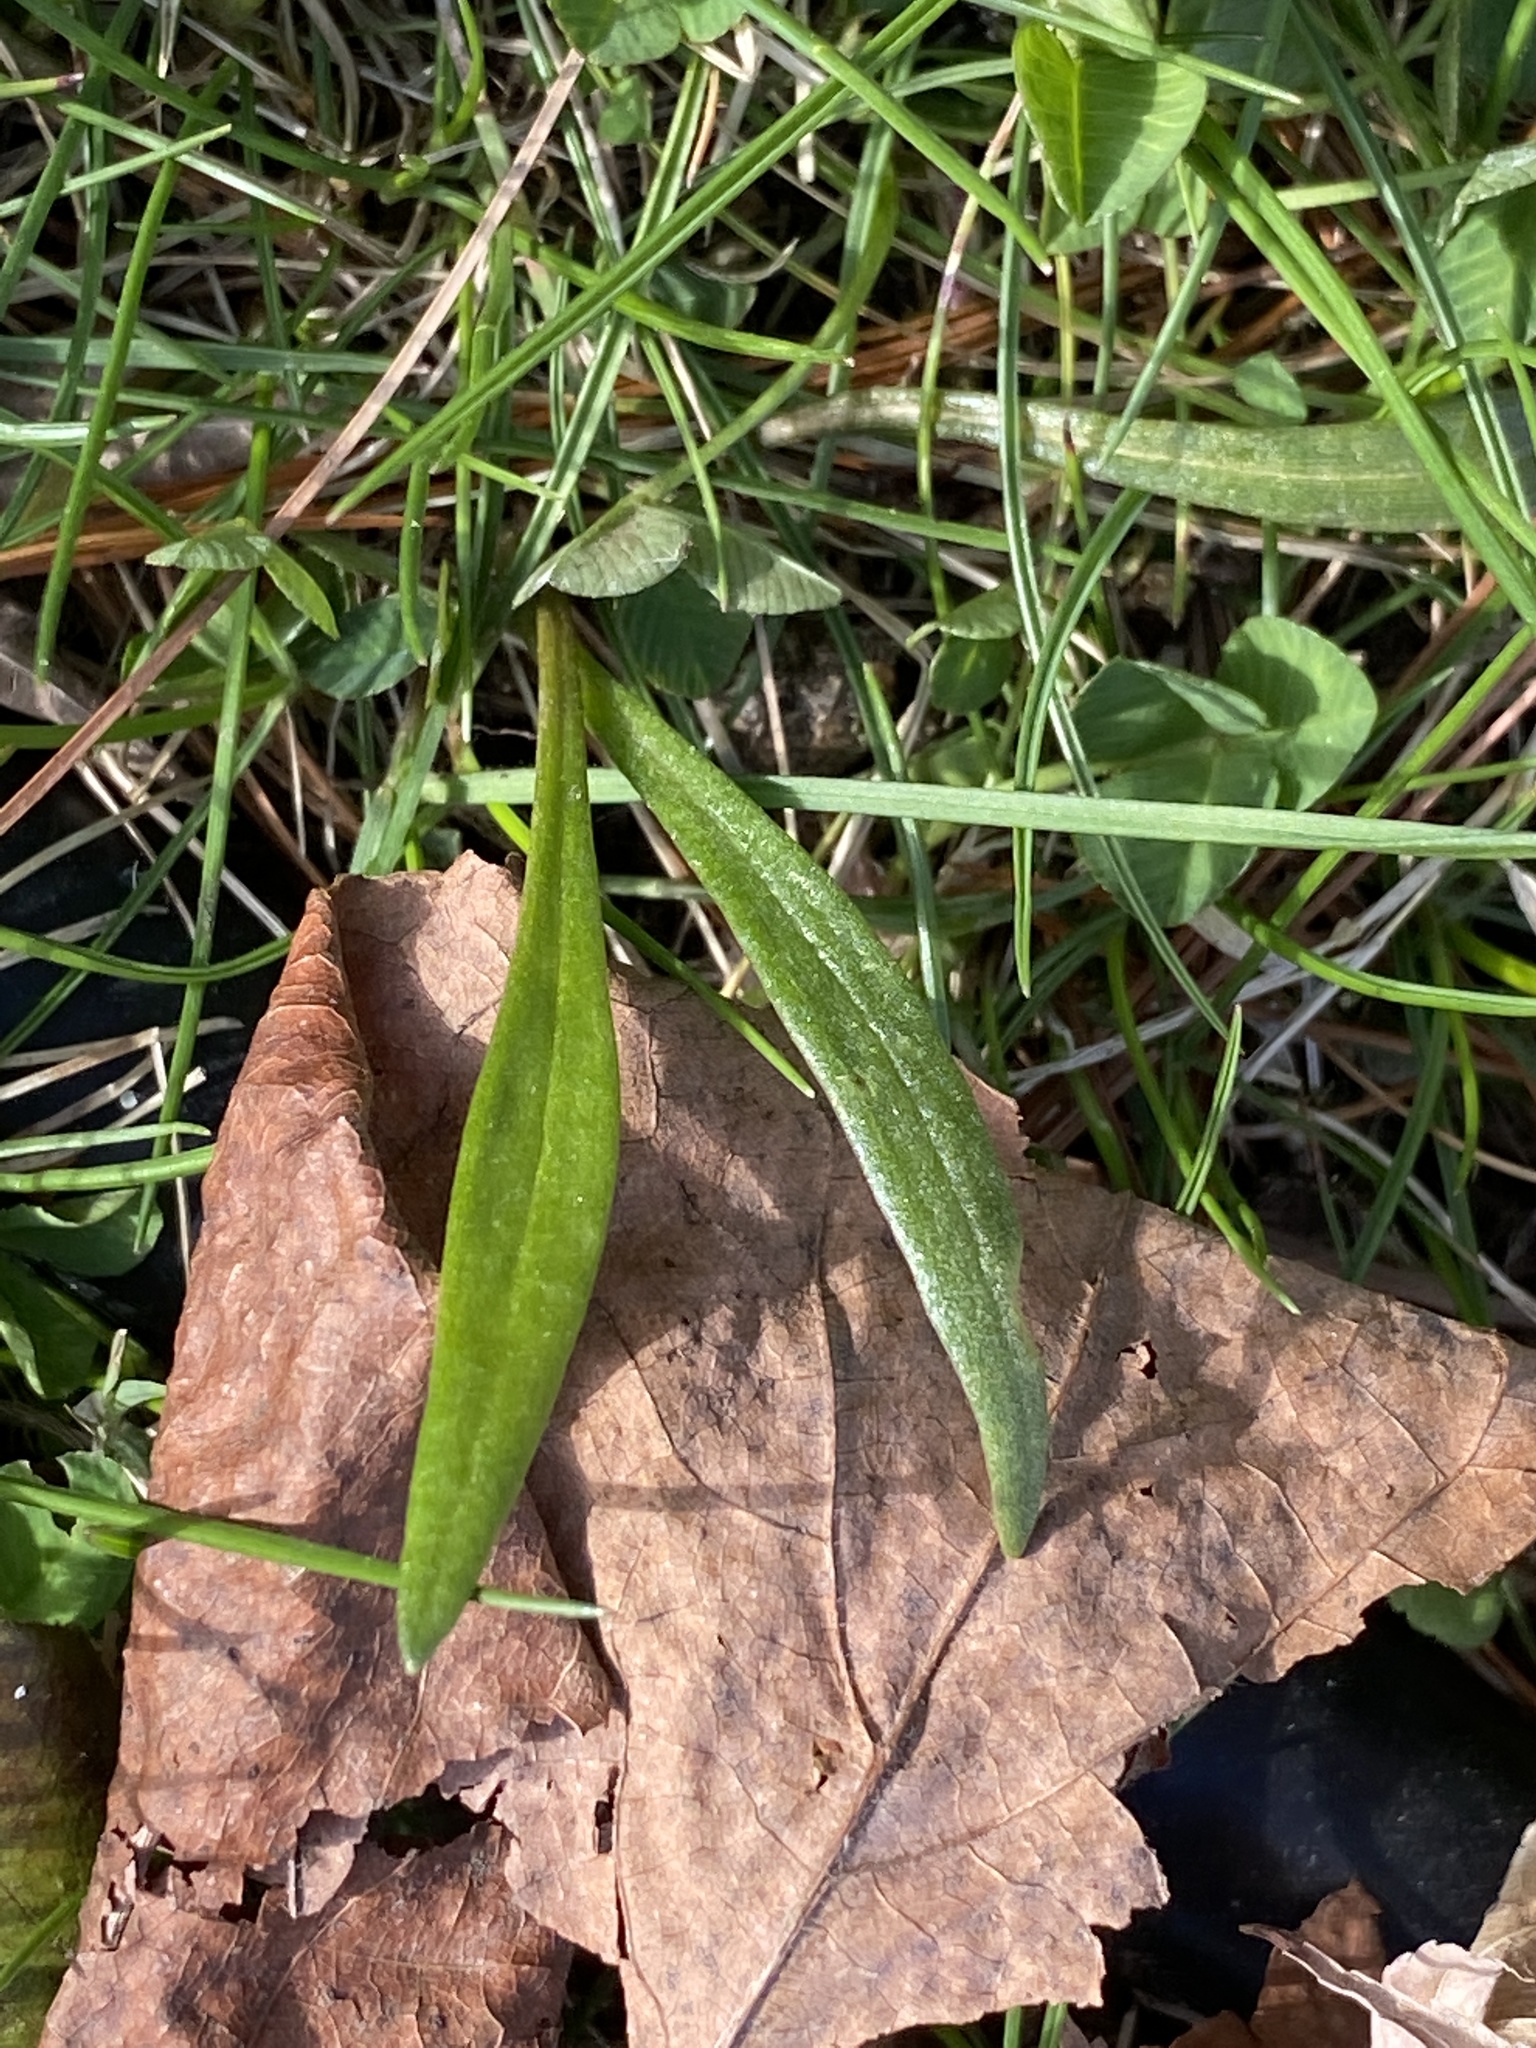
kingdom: Plantae
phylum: Tracheophyta
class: Magnoliopsida
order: Caryophyllales
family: Montiaceae
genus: Claytonia
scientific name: Claytonia virginica
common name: Virginia springbeauty
